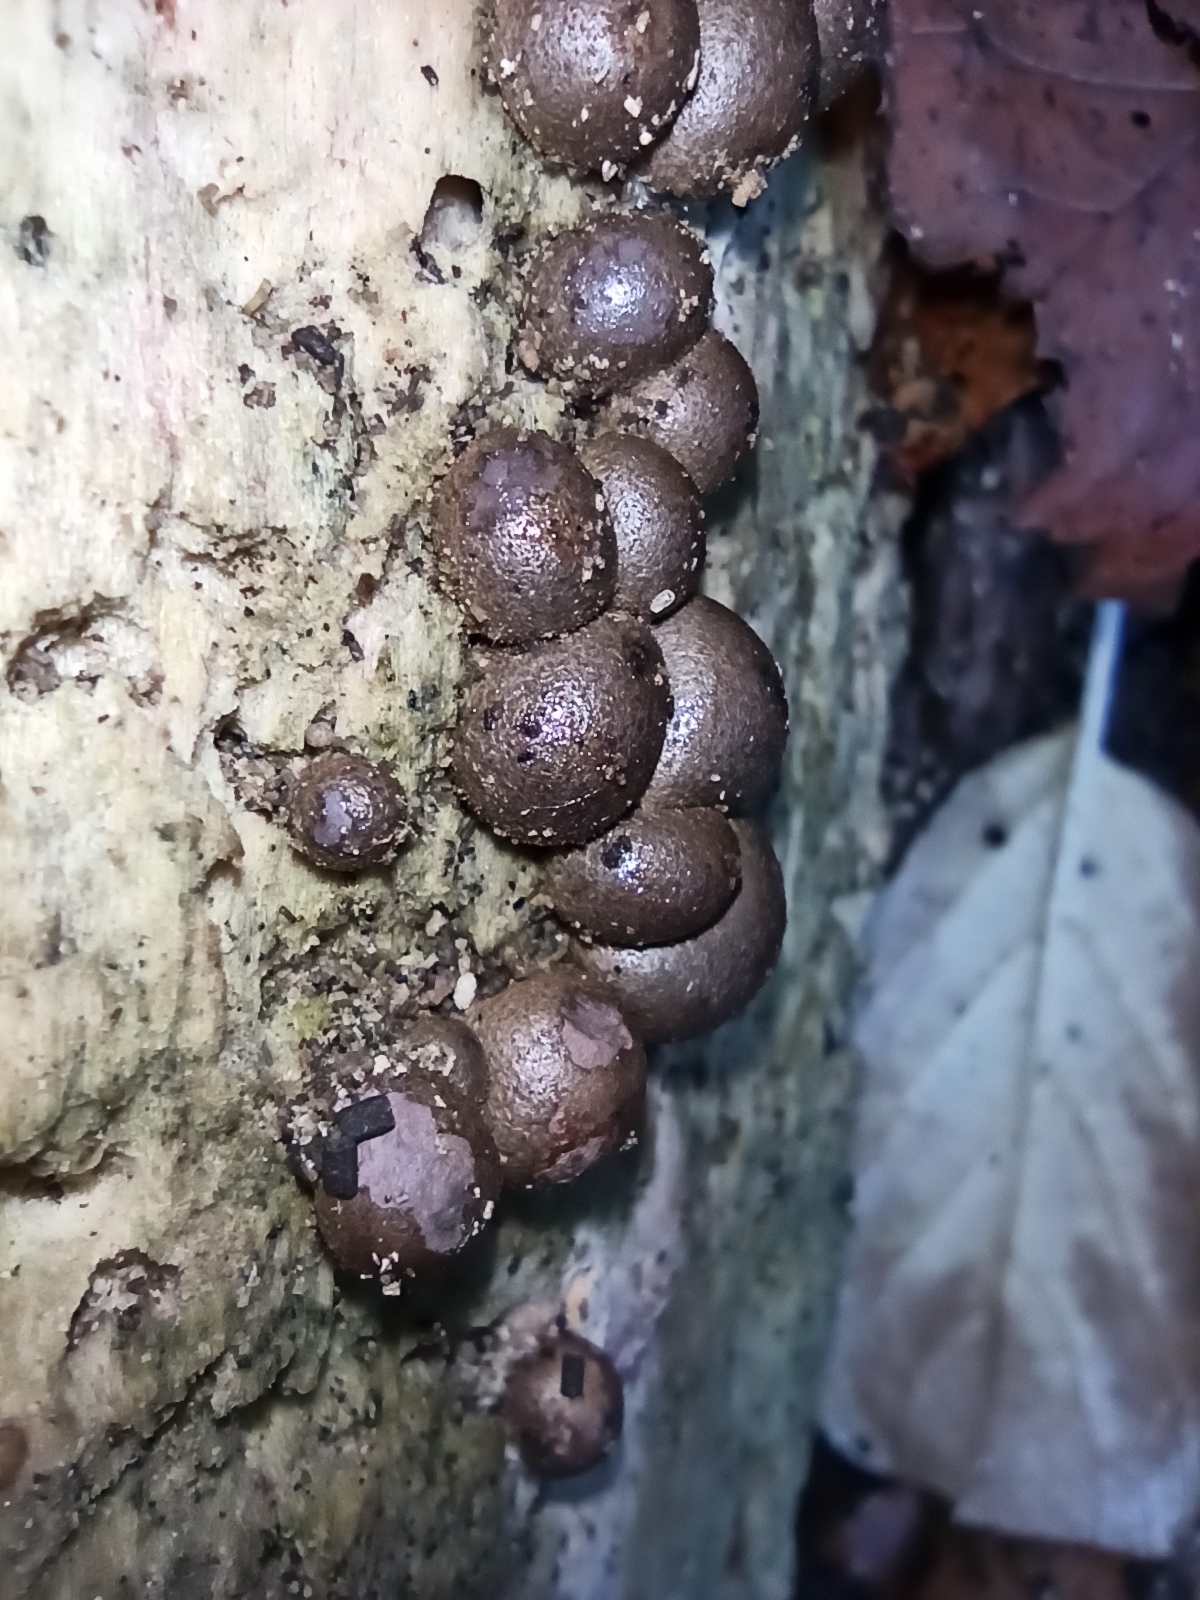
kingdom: Protozoa
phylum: Mycetozoa
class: Myxomycetes
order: Cribrariales
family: Tubiferaceae
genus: Lycogala
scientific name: Lycogala epidendrum
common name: Wolf's milk
